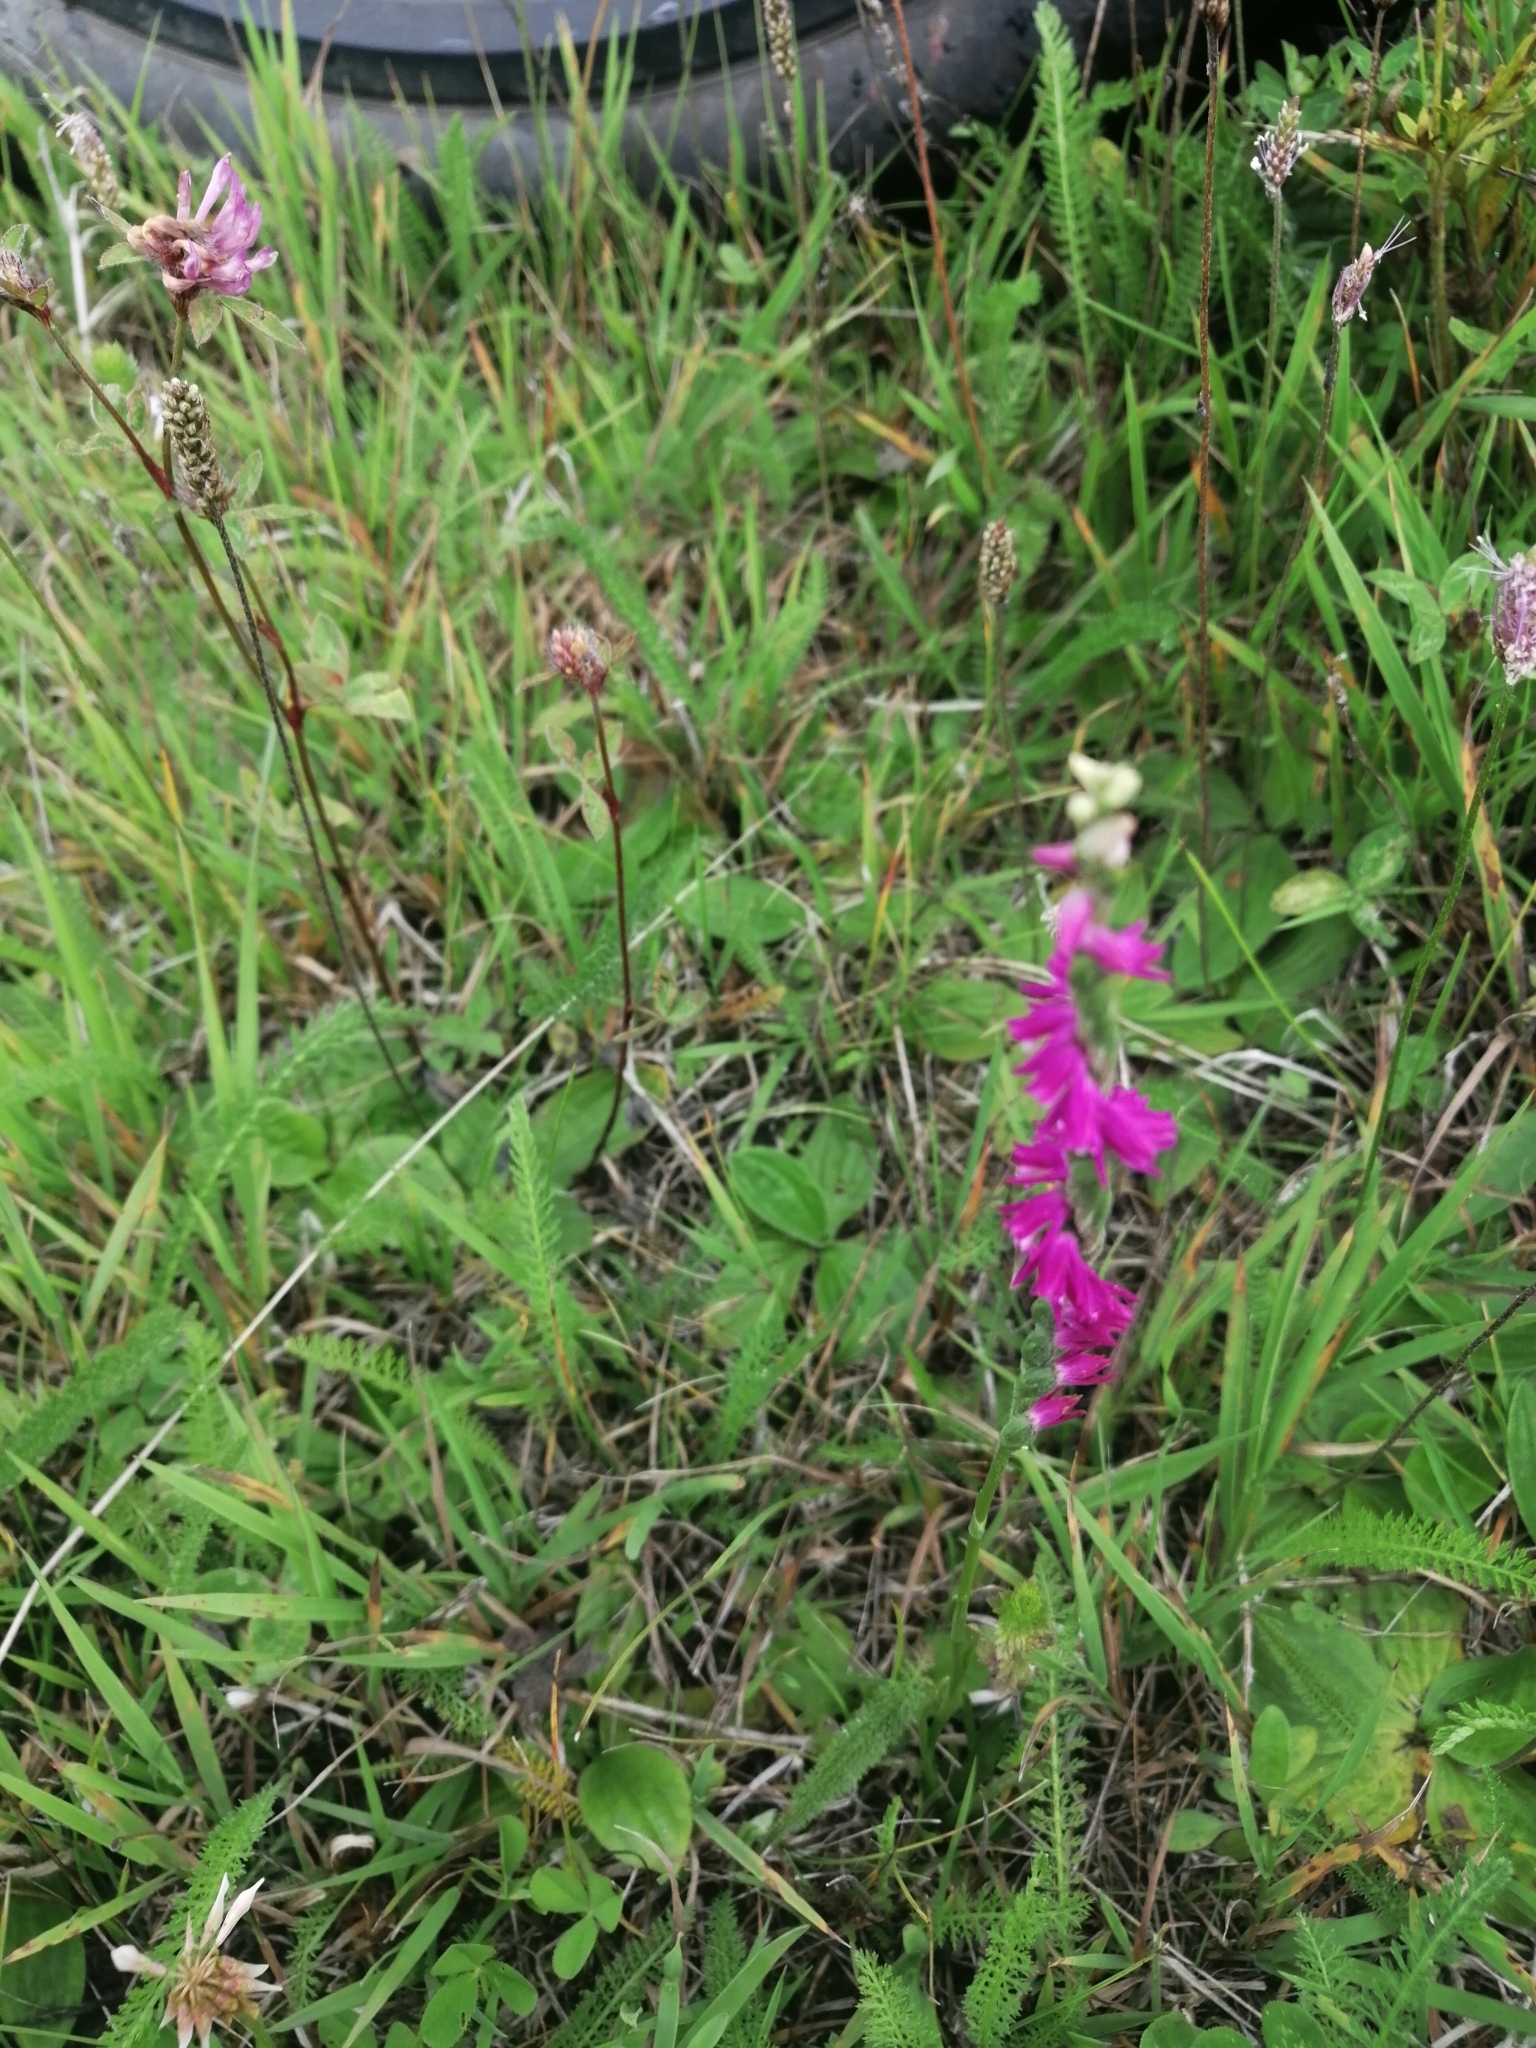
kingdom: Plantae
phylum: Tracheophyta
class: Liliopsida
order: Asparagales
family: Orchidaceae
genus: Spiranthes
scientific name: Spiranthes australis
